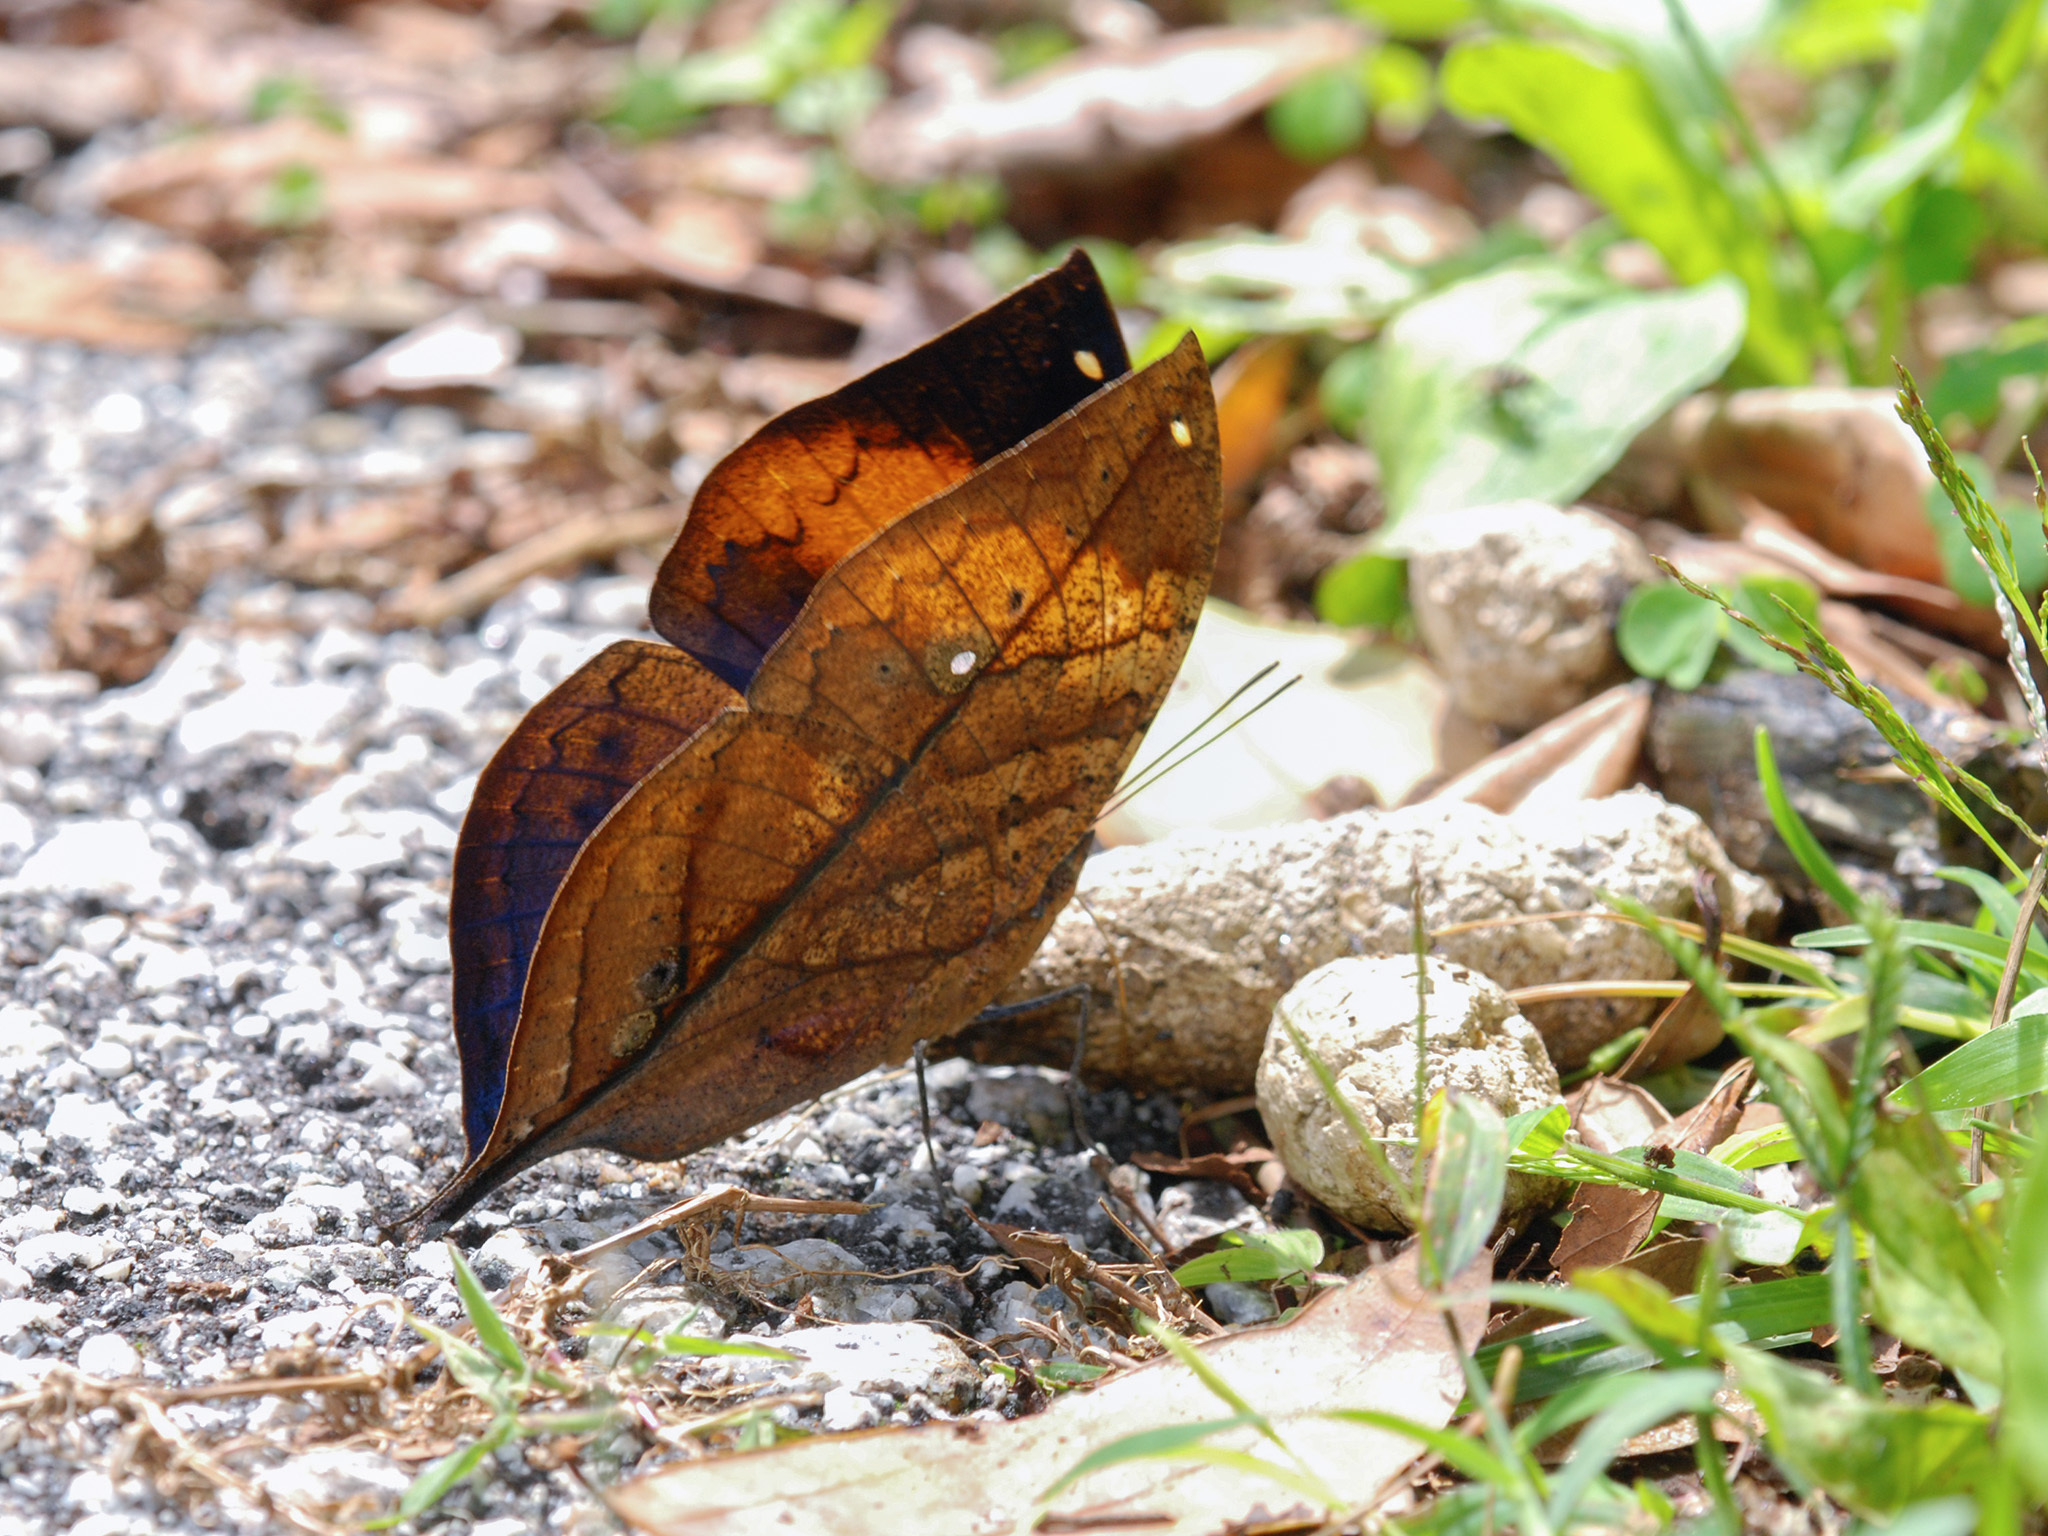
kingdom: Animalia
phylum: Arthropoda
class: Insecta
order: Lepidoptera
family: Nymphalidae
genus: Kallima
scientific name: Kallima paralekta
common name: Indian leafwing
